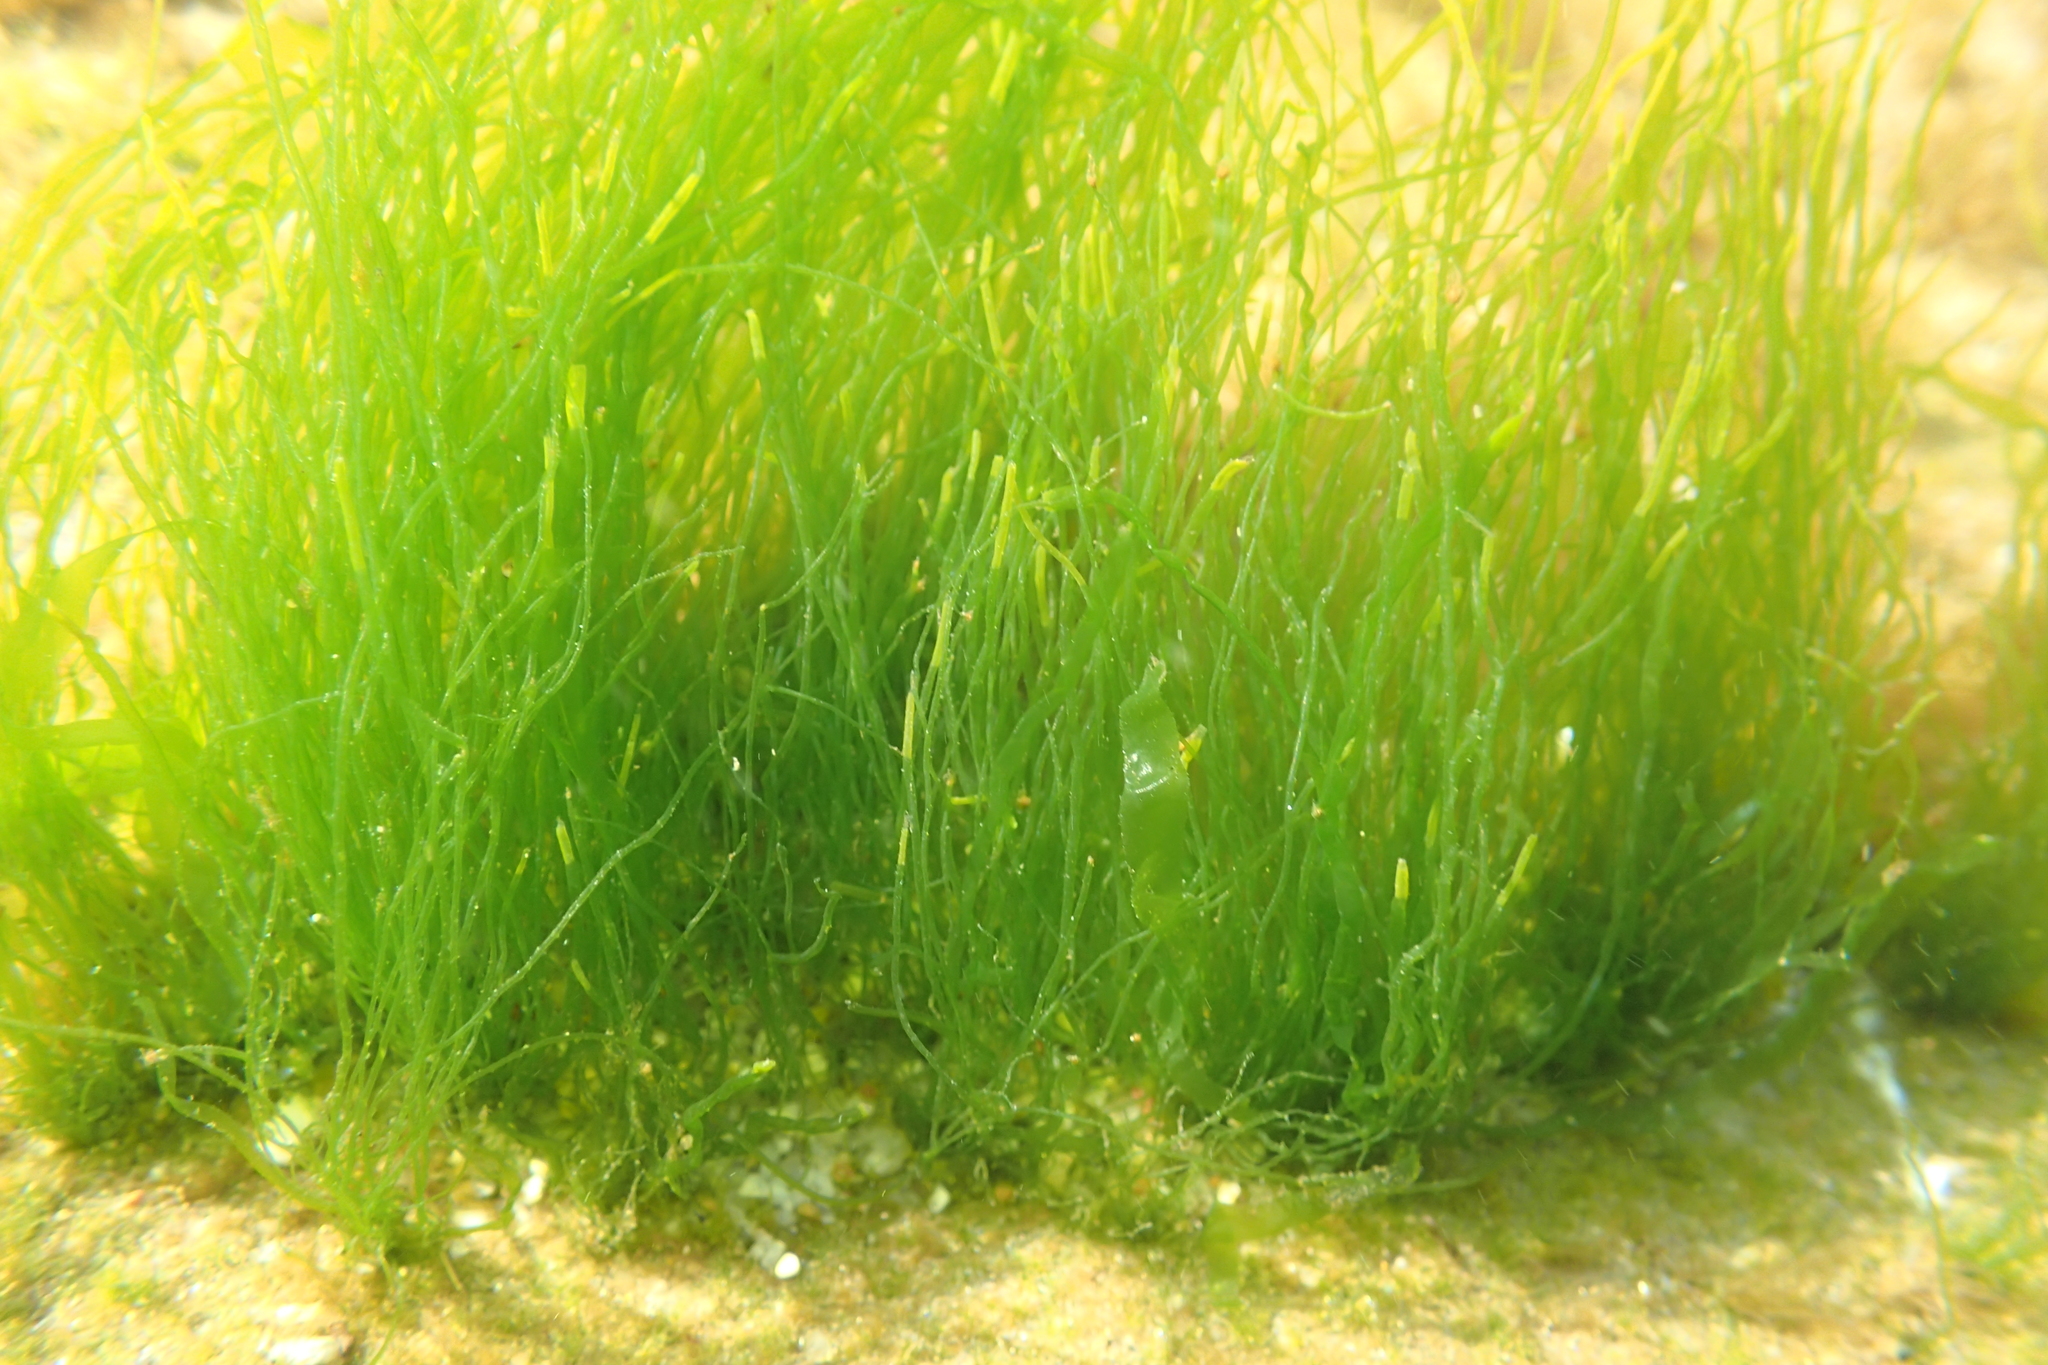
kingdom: Plantae
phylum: Chlorophyta
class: Ulvophyceae
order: Ulvales
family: Ulvaceae
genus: Ulva
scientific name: Ulva intestinalis
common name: Gut weed
